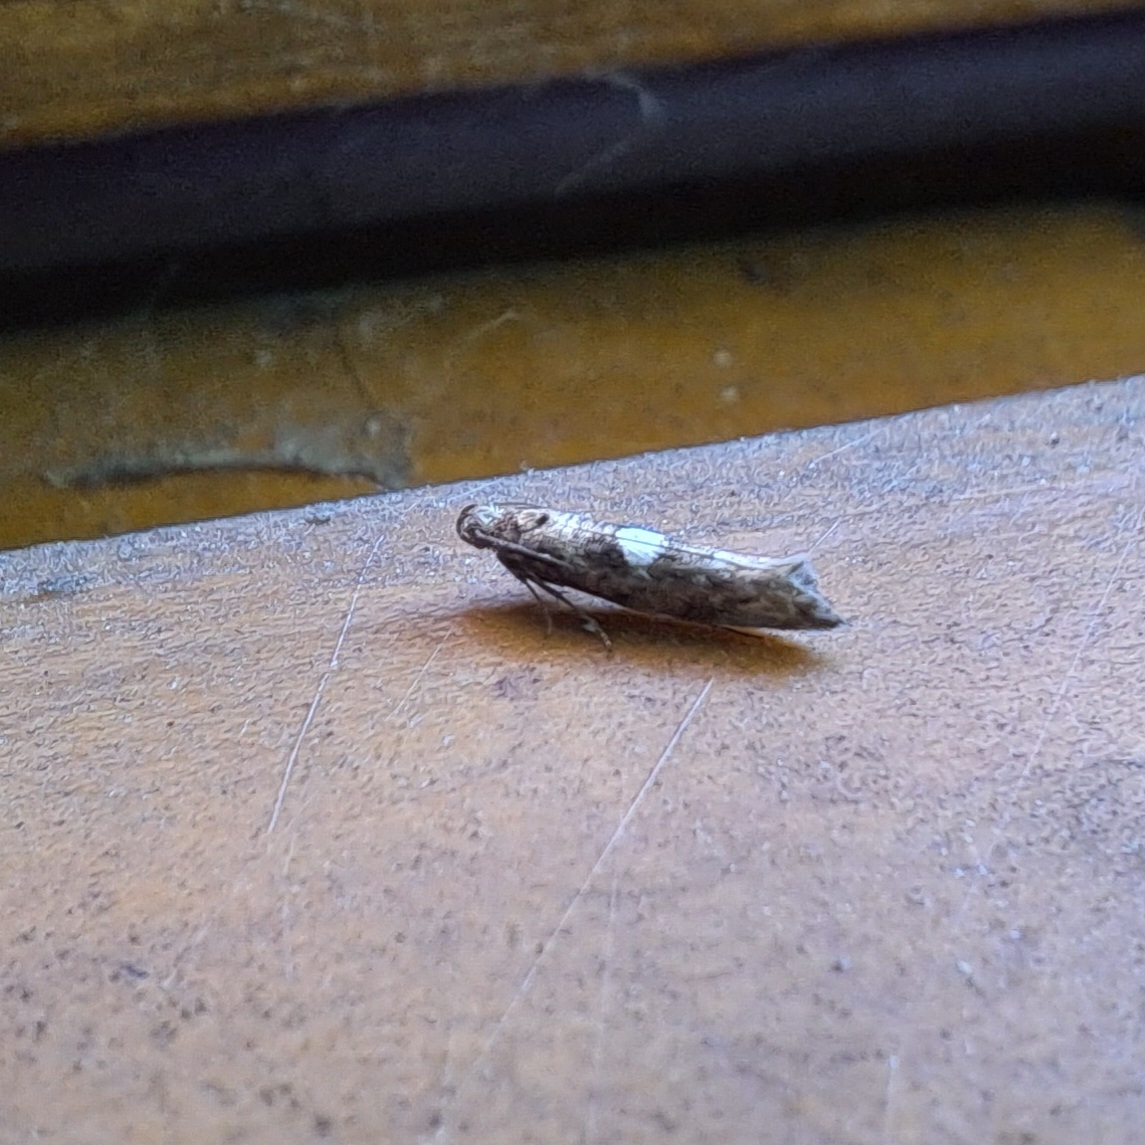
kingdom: Animalia
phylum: Arthropoda
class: Insecta
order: Lepidoptera
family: Glyphipterigidae
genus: Acrolepia
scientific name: Acrolepia assectella
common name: Onion leaf miner
